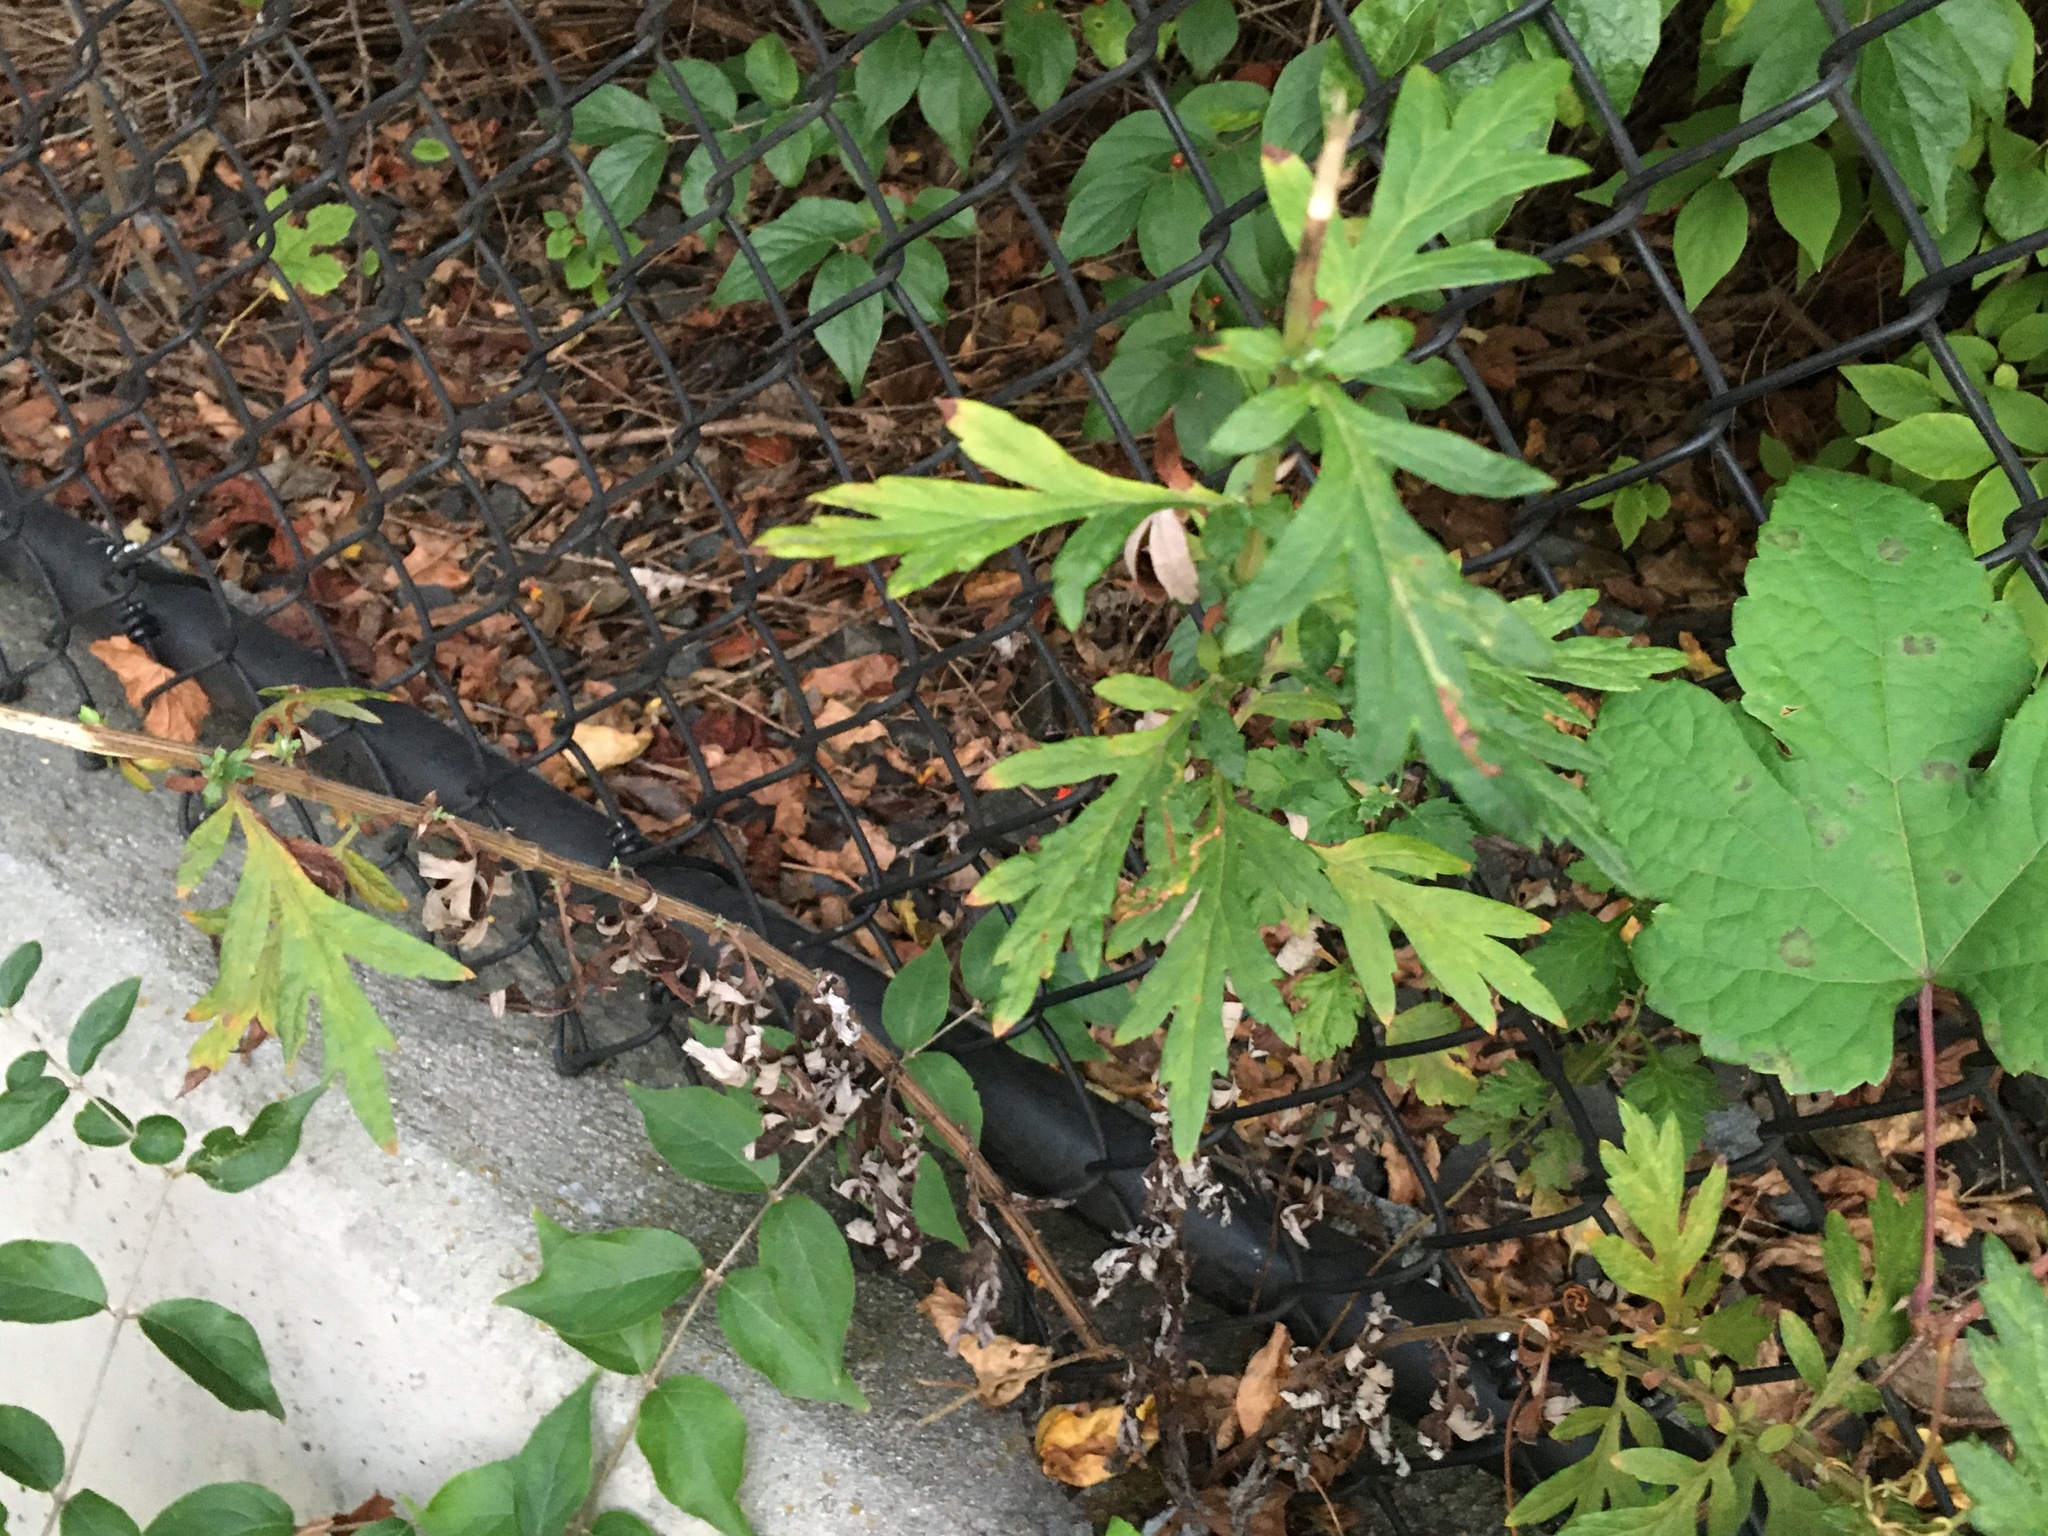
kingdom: Plantae
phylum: Tracheophyta
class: Magnoliopsida
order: Asterales
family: Asteraceae
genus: Artemisia
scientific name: Artemisia vulgaris
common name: Mugwort
